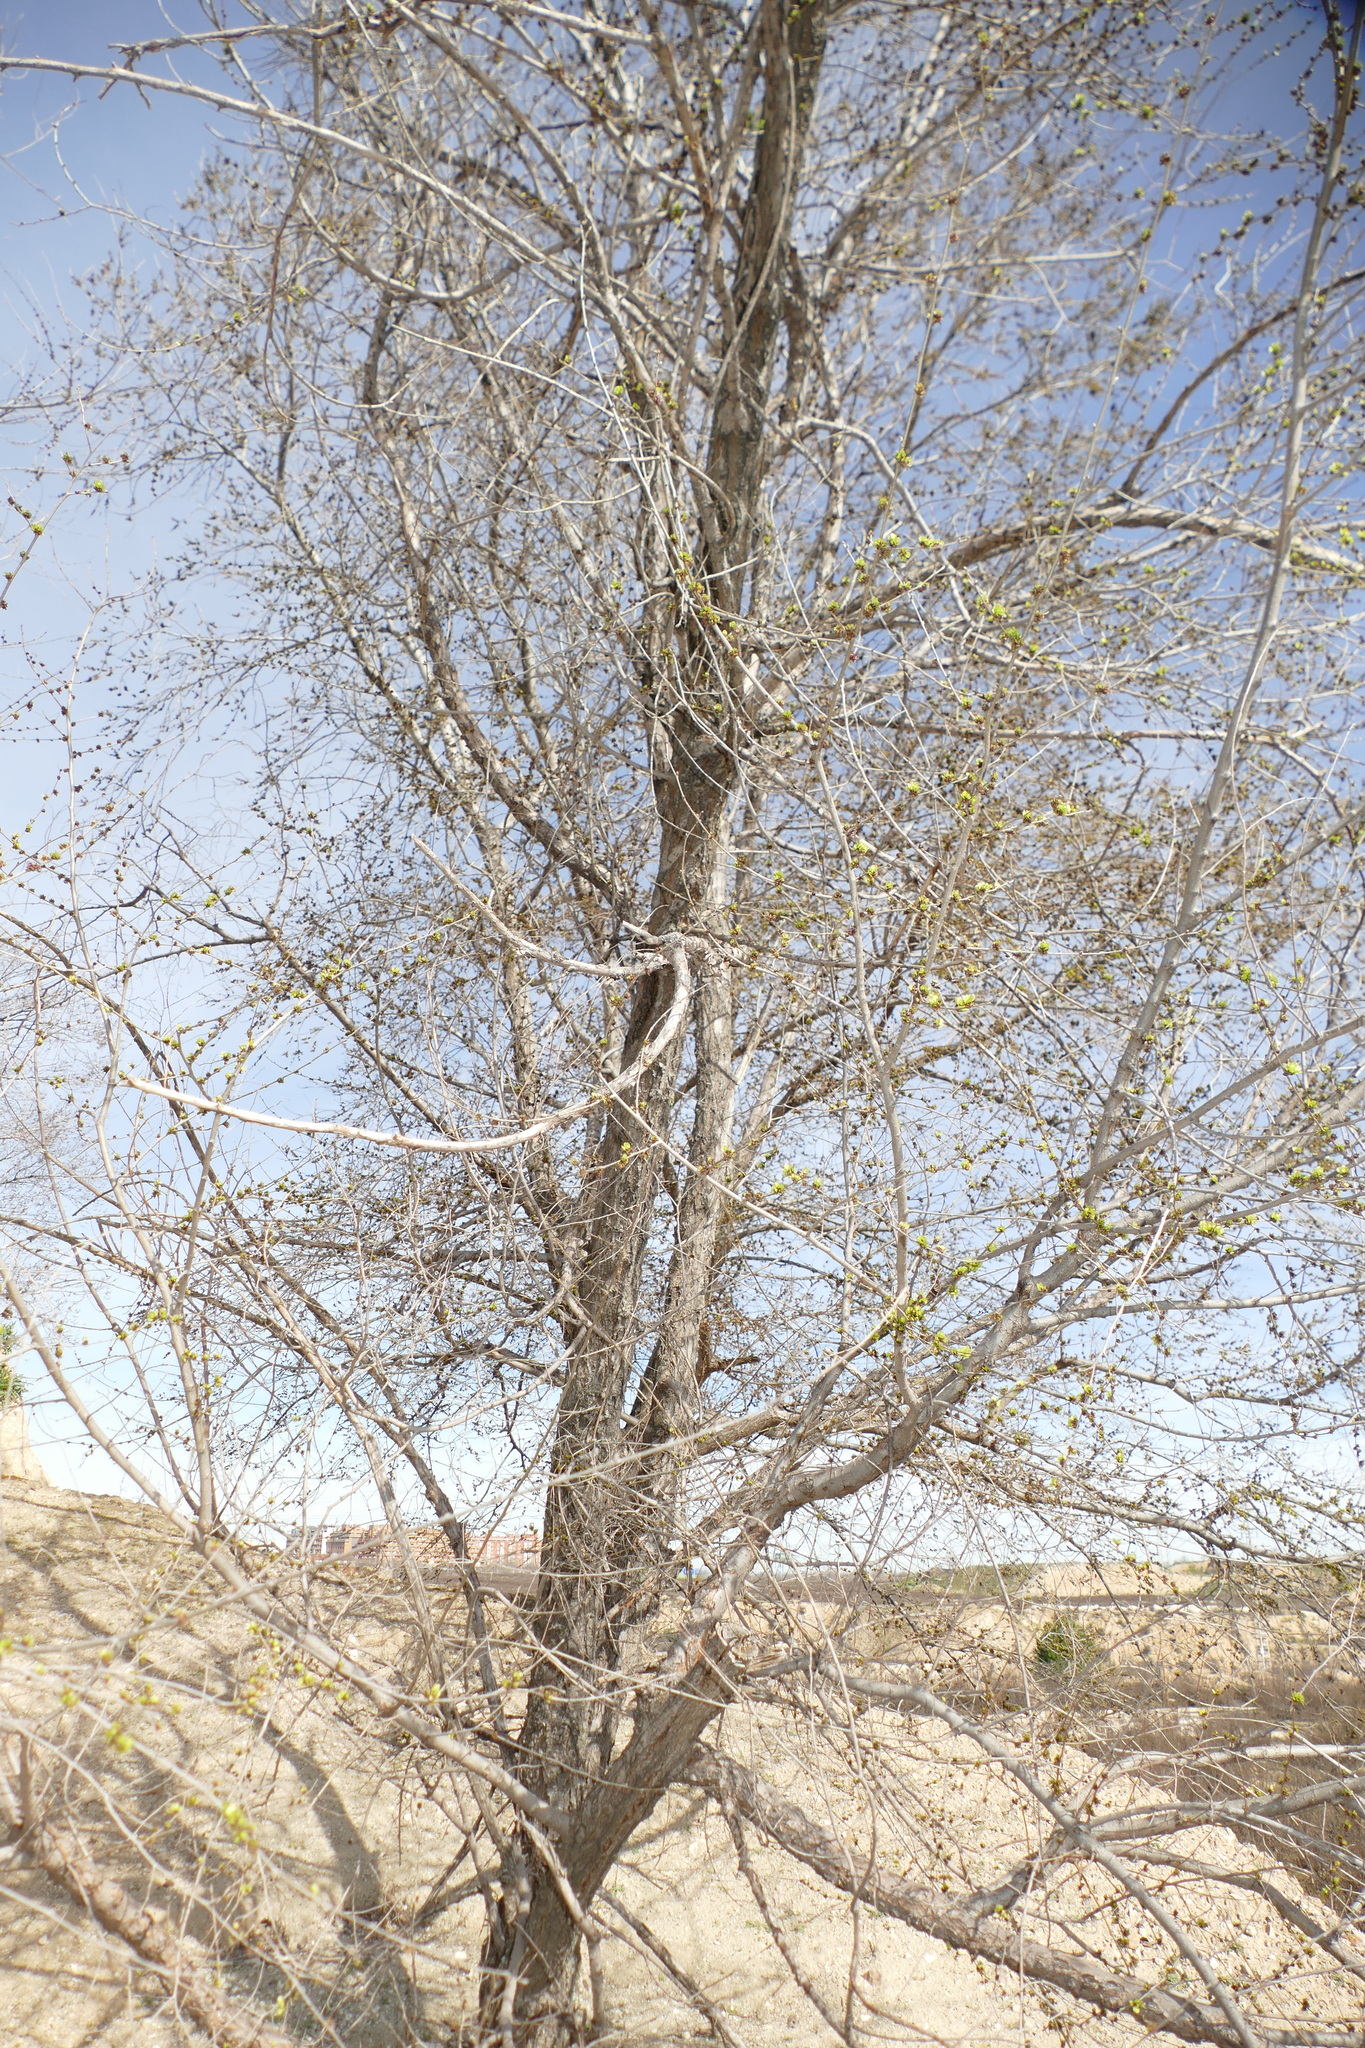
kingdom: Plantae
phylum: Tracheophyta
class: Magnoliopsida
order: Rosales
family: Ulmaceae
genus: Ulmus
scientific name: Ulmus pumila
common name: Siberian elm
